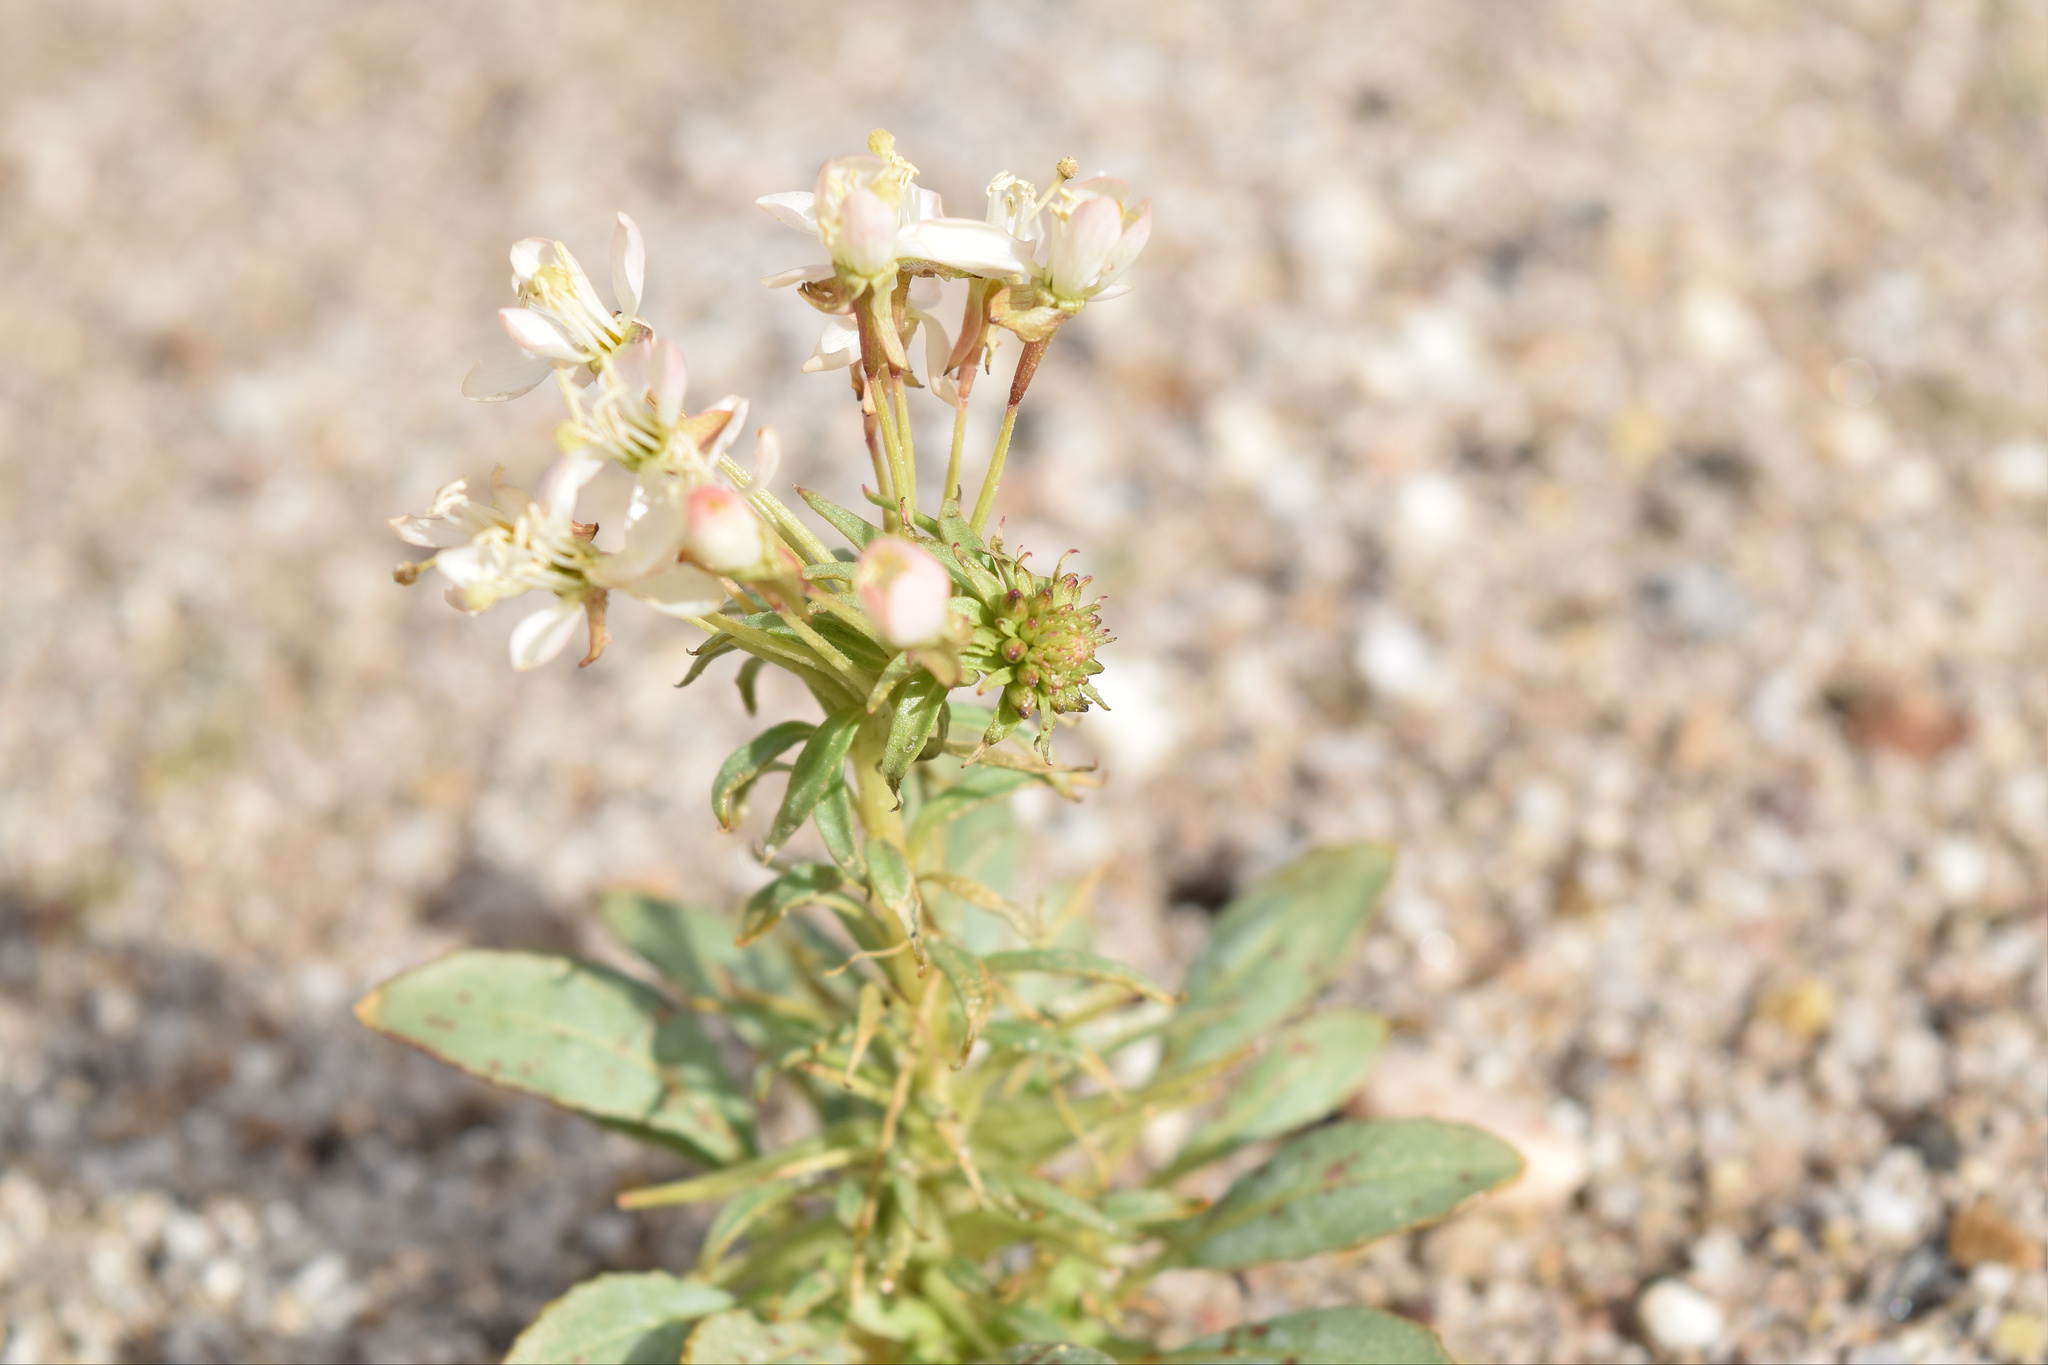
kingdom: Plantae
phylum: Tracheophyta
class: Magnoliopsida
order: Myrtales
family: Onagraceae
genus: Chylismia
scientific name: Chylismia claviformis
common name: Browneyes
